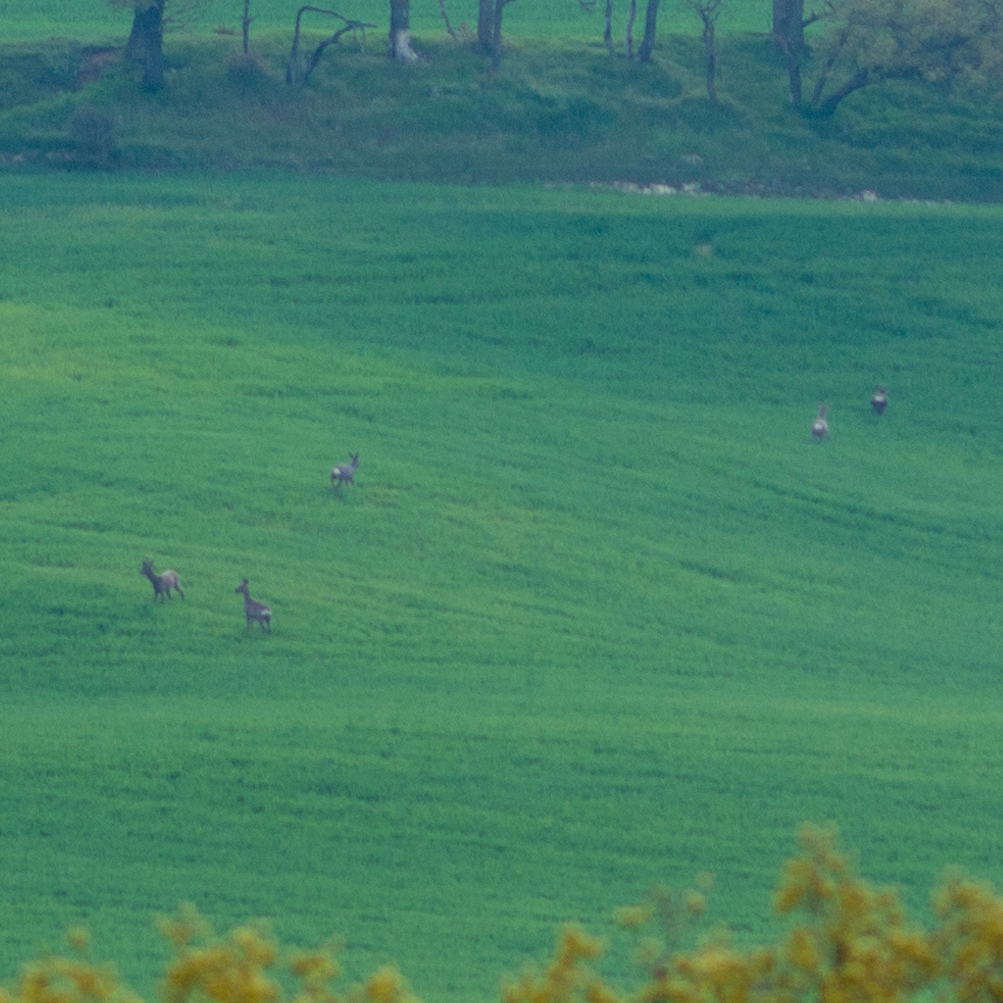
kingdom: Animalia
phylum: Chordata
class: Mammalia
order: Artiodactyla
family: Cervidae
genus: Capreolus
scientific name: Capreolus capreolus
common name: Western roe deer
